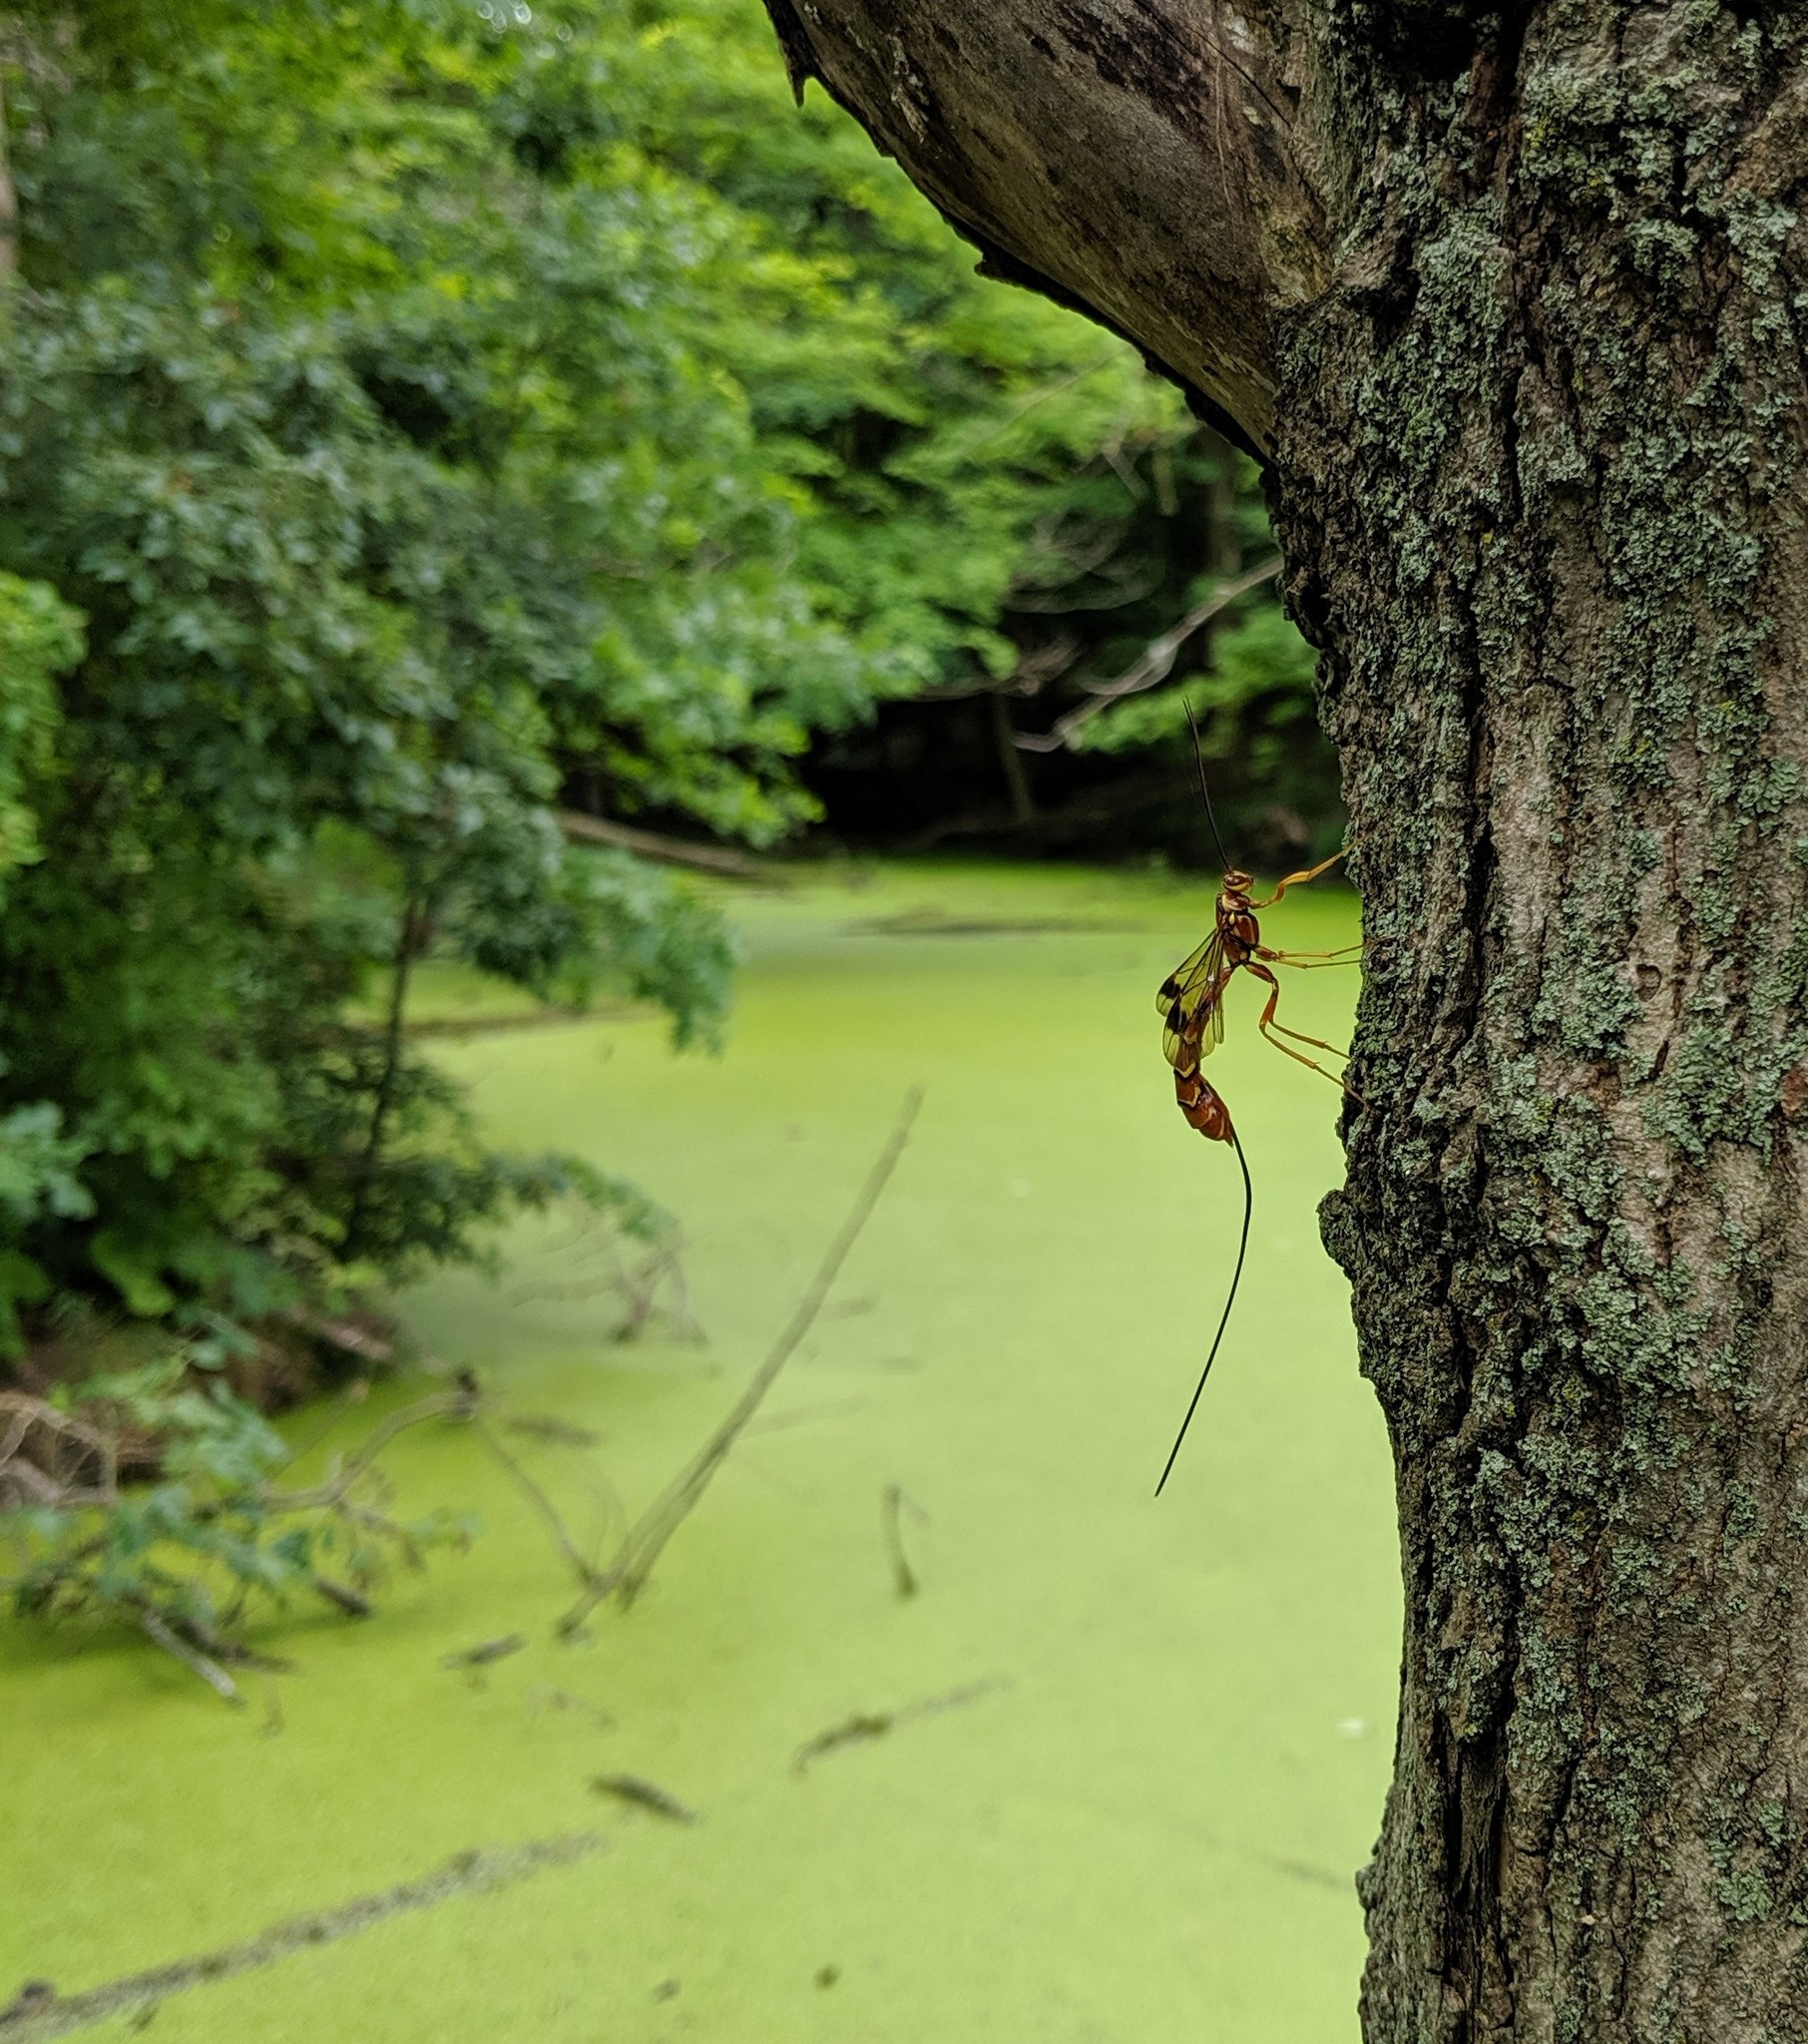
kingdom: Animalia
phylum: Arthropoda
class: Insecta
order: Hymenoptera
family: Ichneumonidae
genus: Megarhyssa
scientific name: Megarhyssa greenei
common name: Greene's giant ichneumonid wasp
